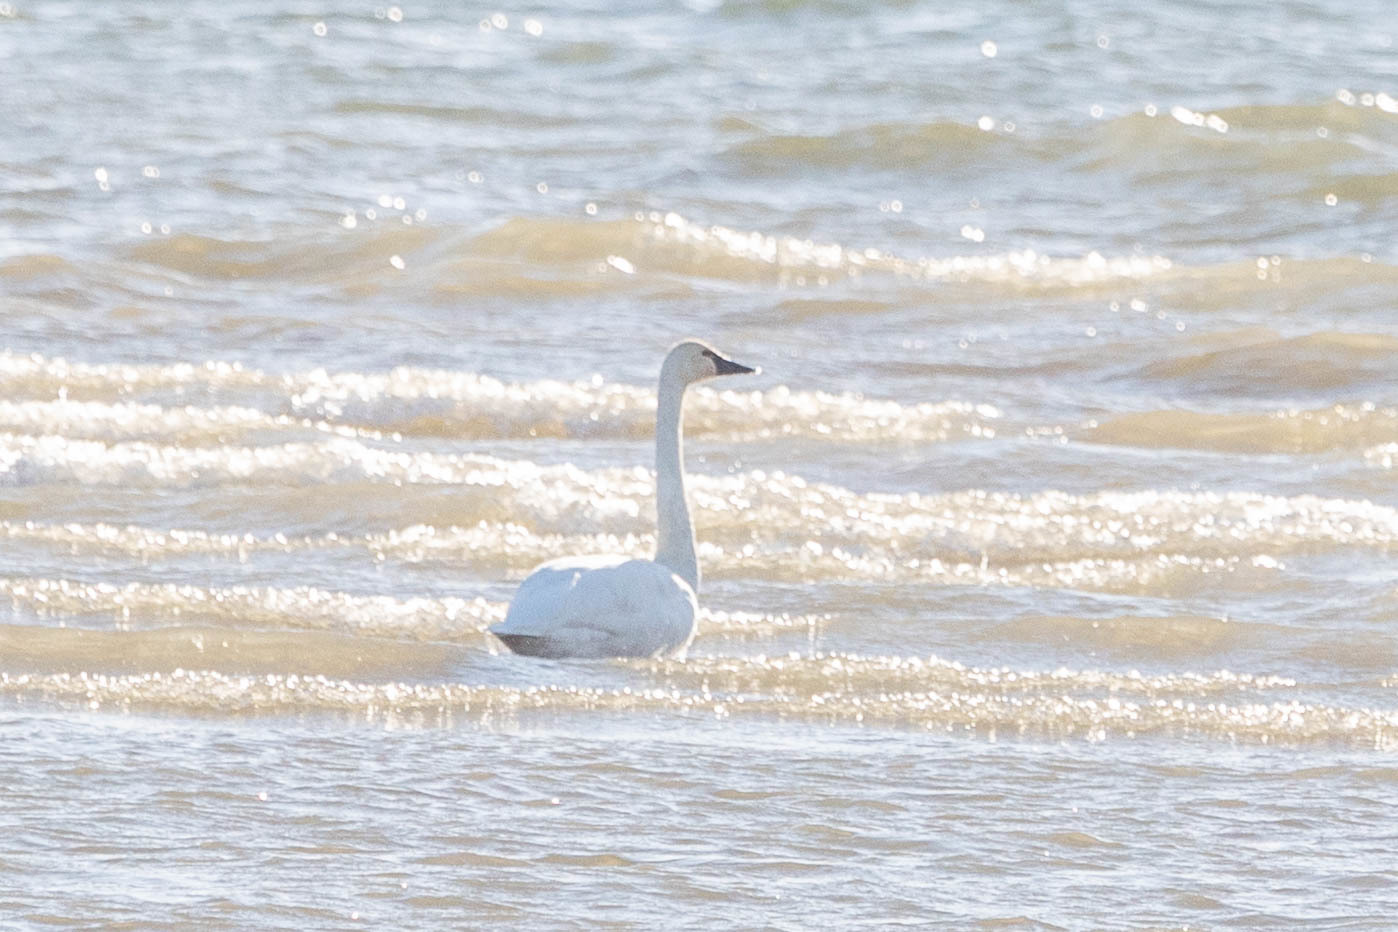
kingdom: Animalia
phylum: Chordata
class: Aves
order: Anseriformes
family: Anatidae
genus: Cygnus
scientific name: Cygnus columbianus
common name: Tundra swan
